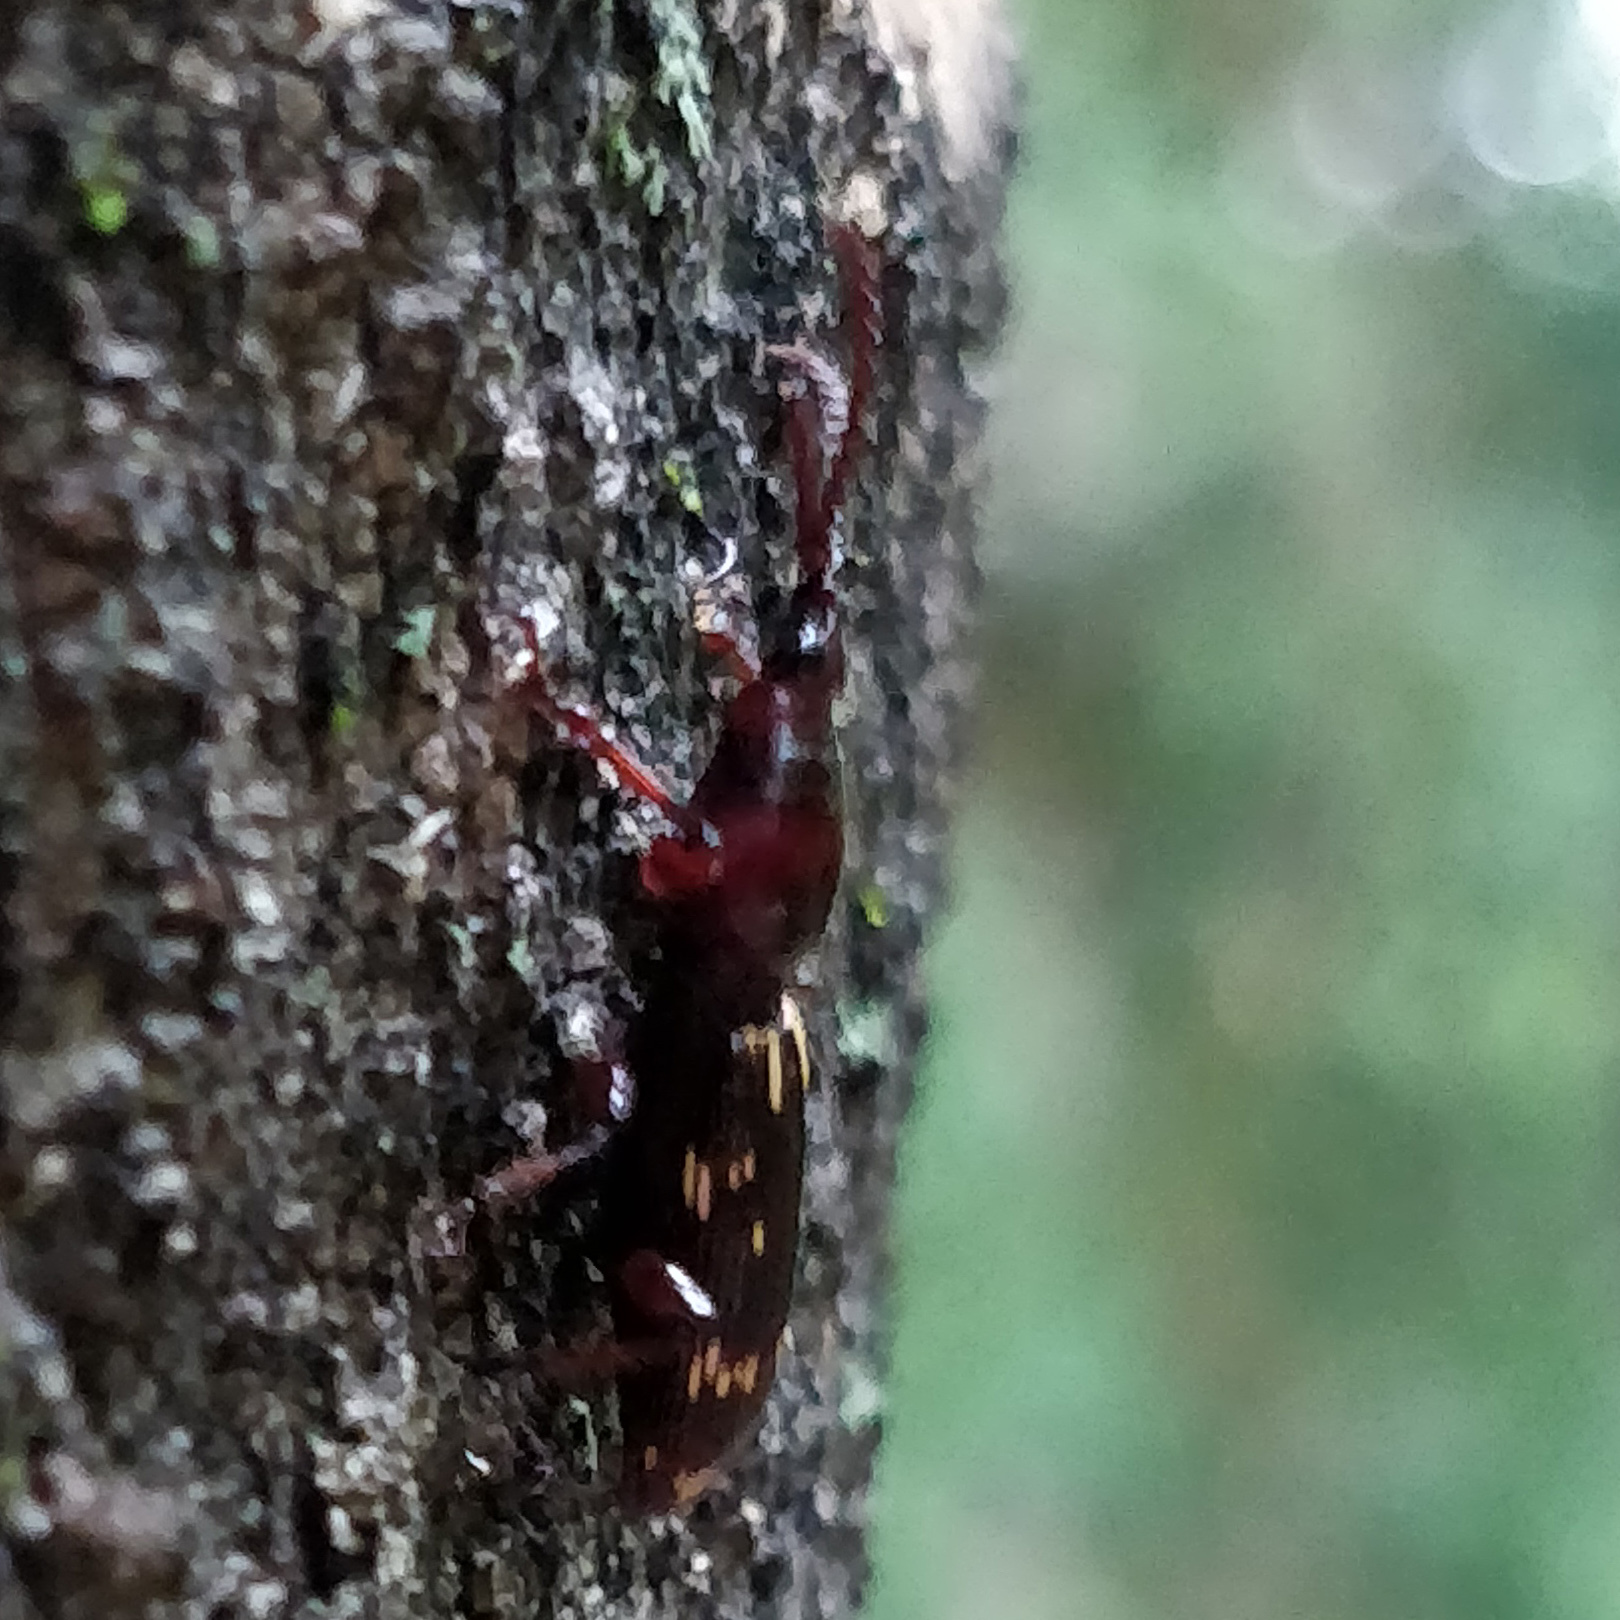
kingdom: Animalia
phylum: Arthropoda
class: Insecta
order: Coleoptera
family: Brentidae
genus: Arrenodes
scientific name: Arrenodes minutus
